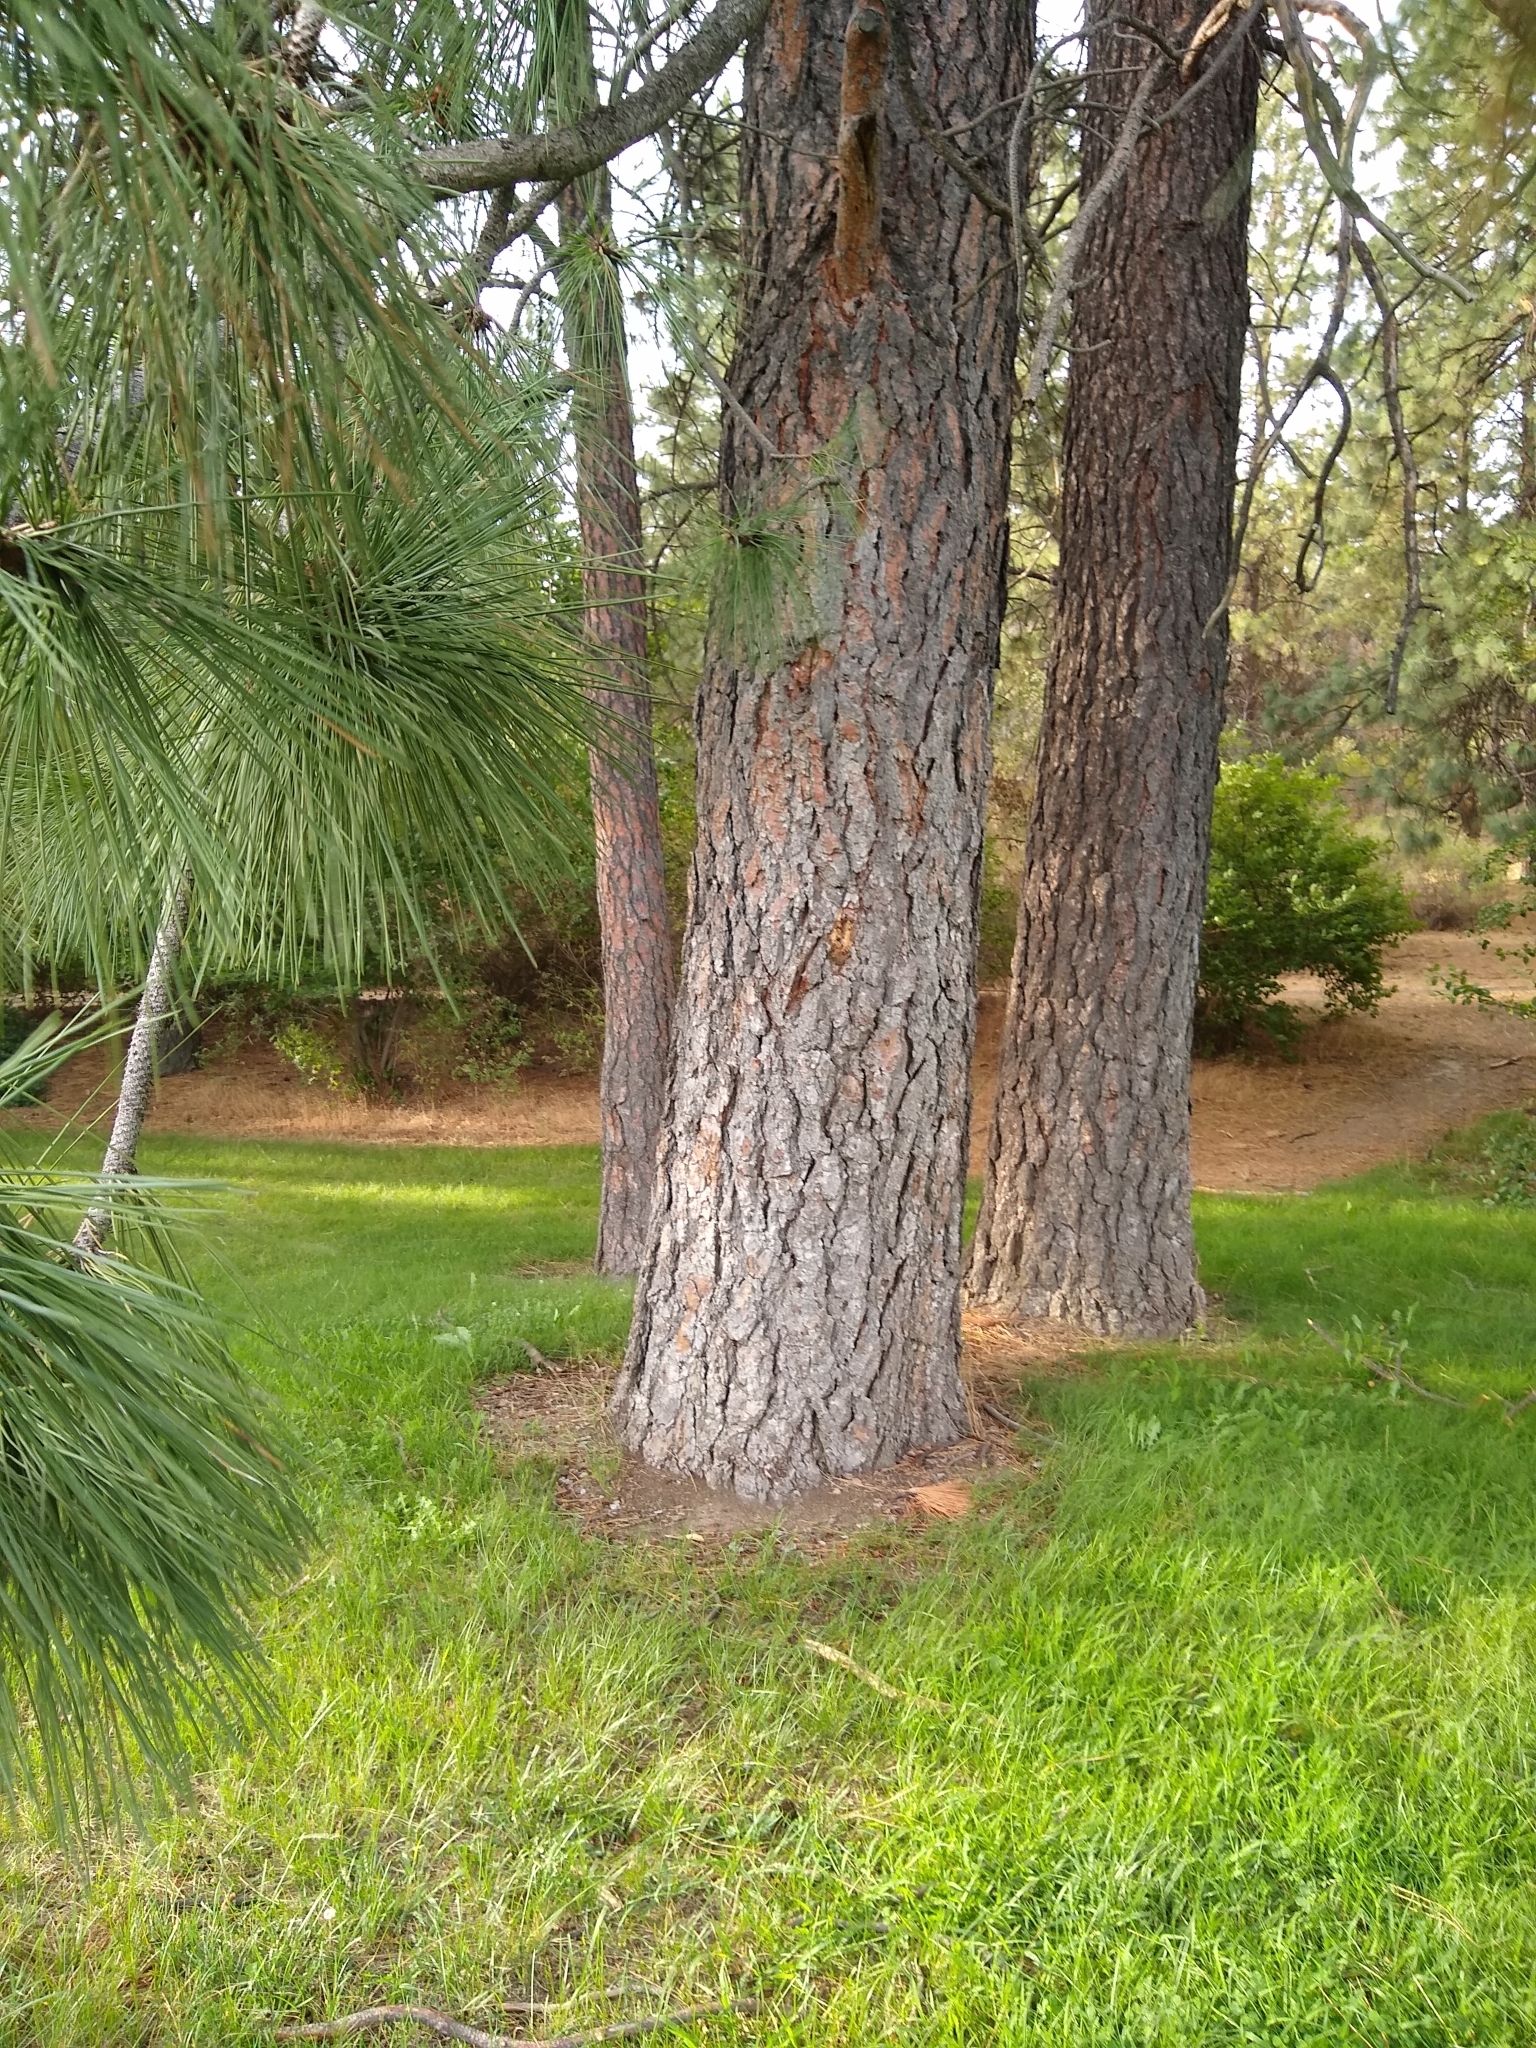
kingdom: Plantae
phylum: Tracheophyta
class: Pinopsida
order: Pinales
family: Pinaceae
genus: Pinus
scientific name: Pinus ponderosa
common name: Western yellow-pine
